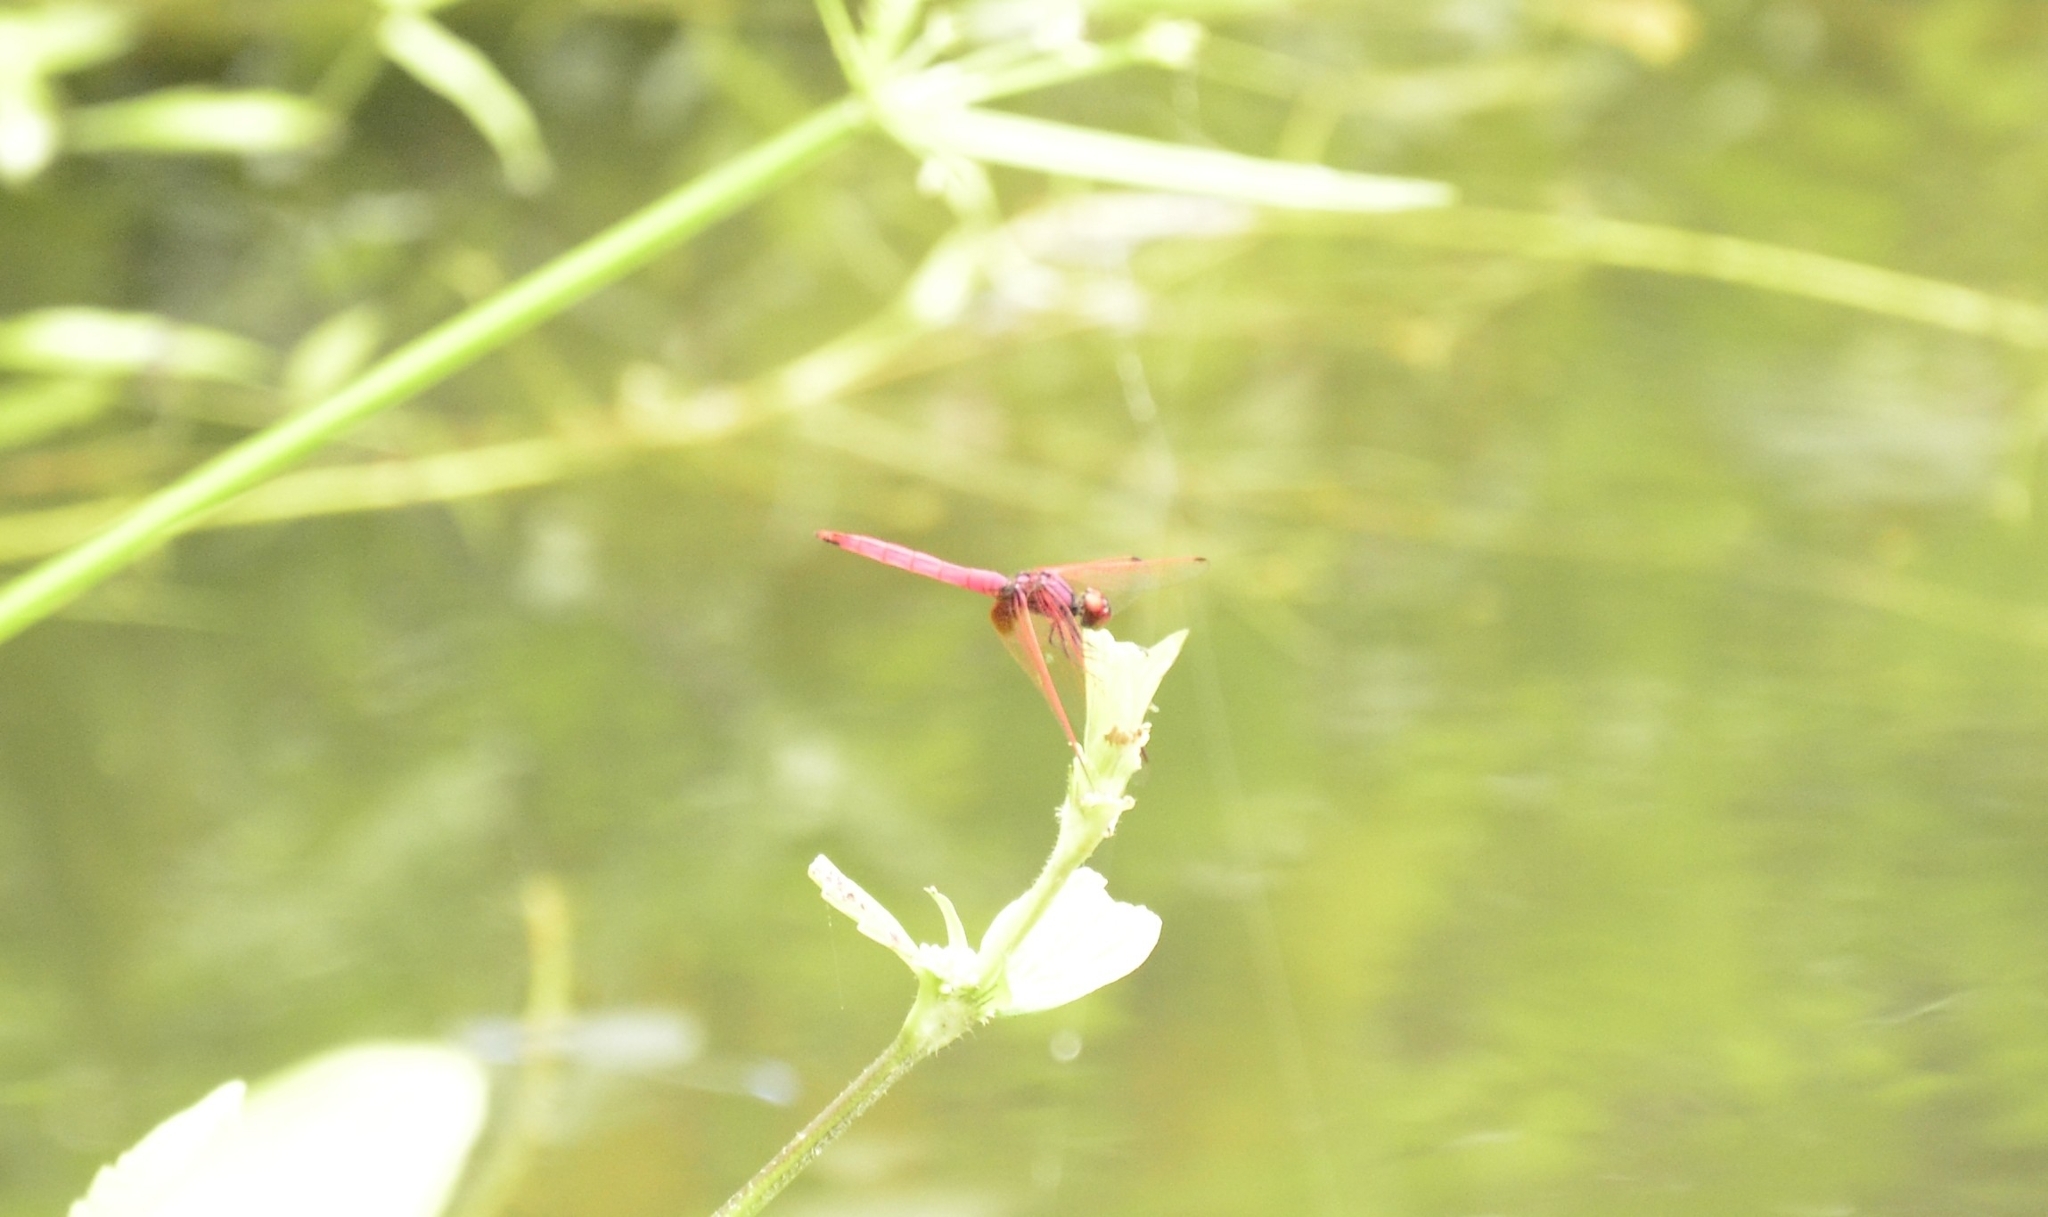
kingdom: Animalia
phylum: Arthropoda
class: Insecta
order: Odonata
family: Libellulidae
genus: Trithemis
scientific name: Trithemis aurora
